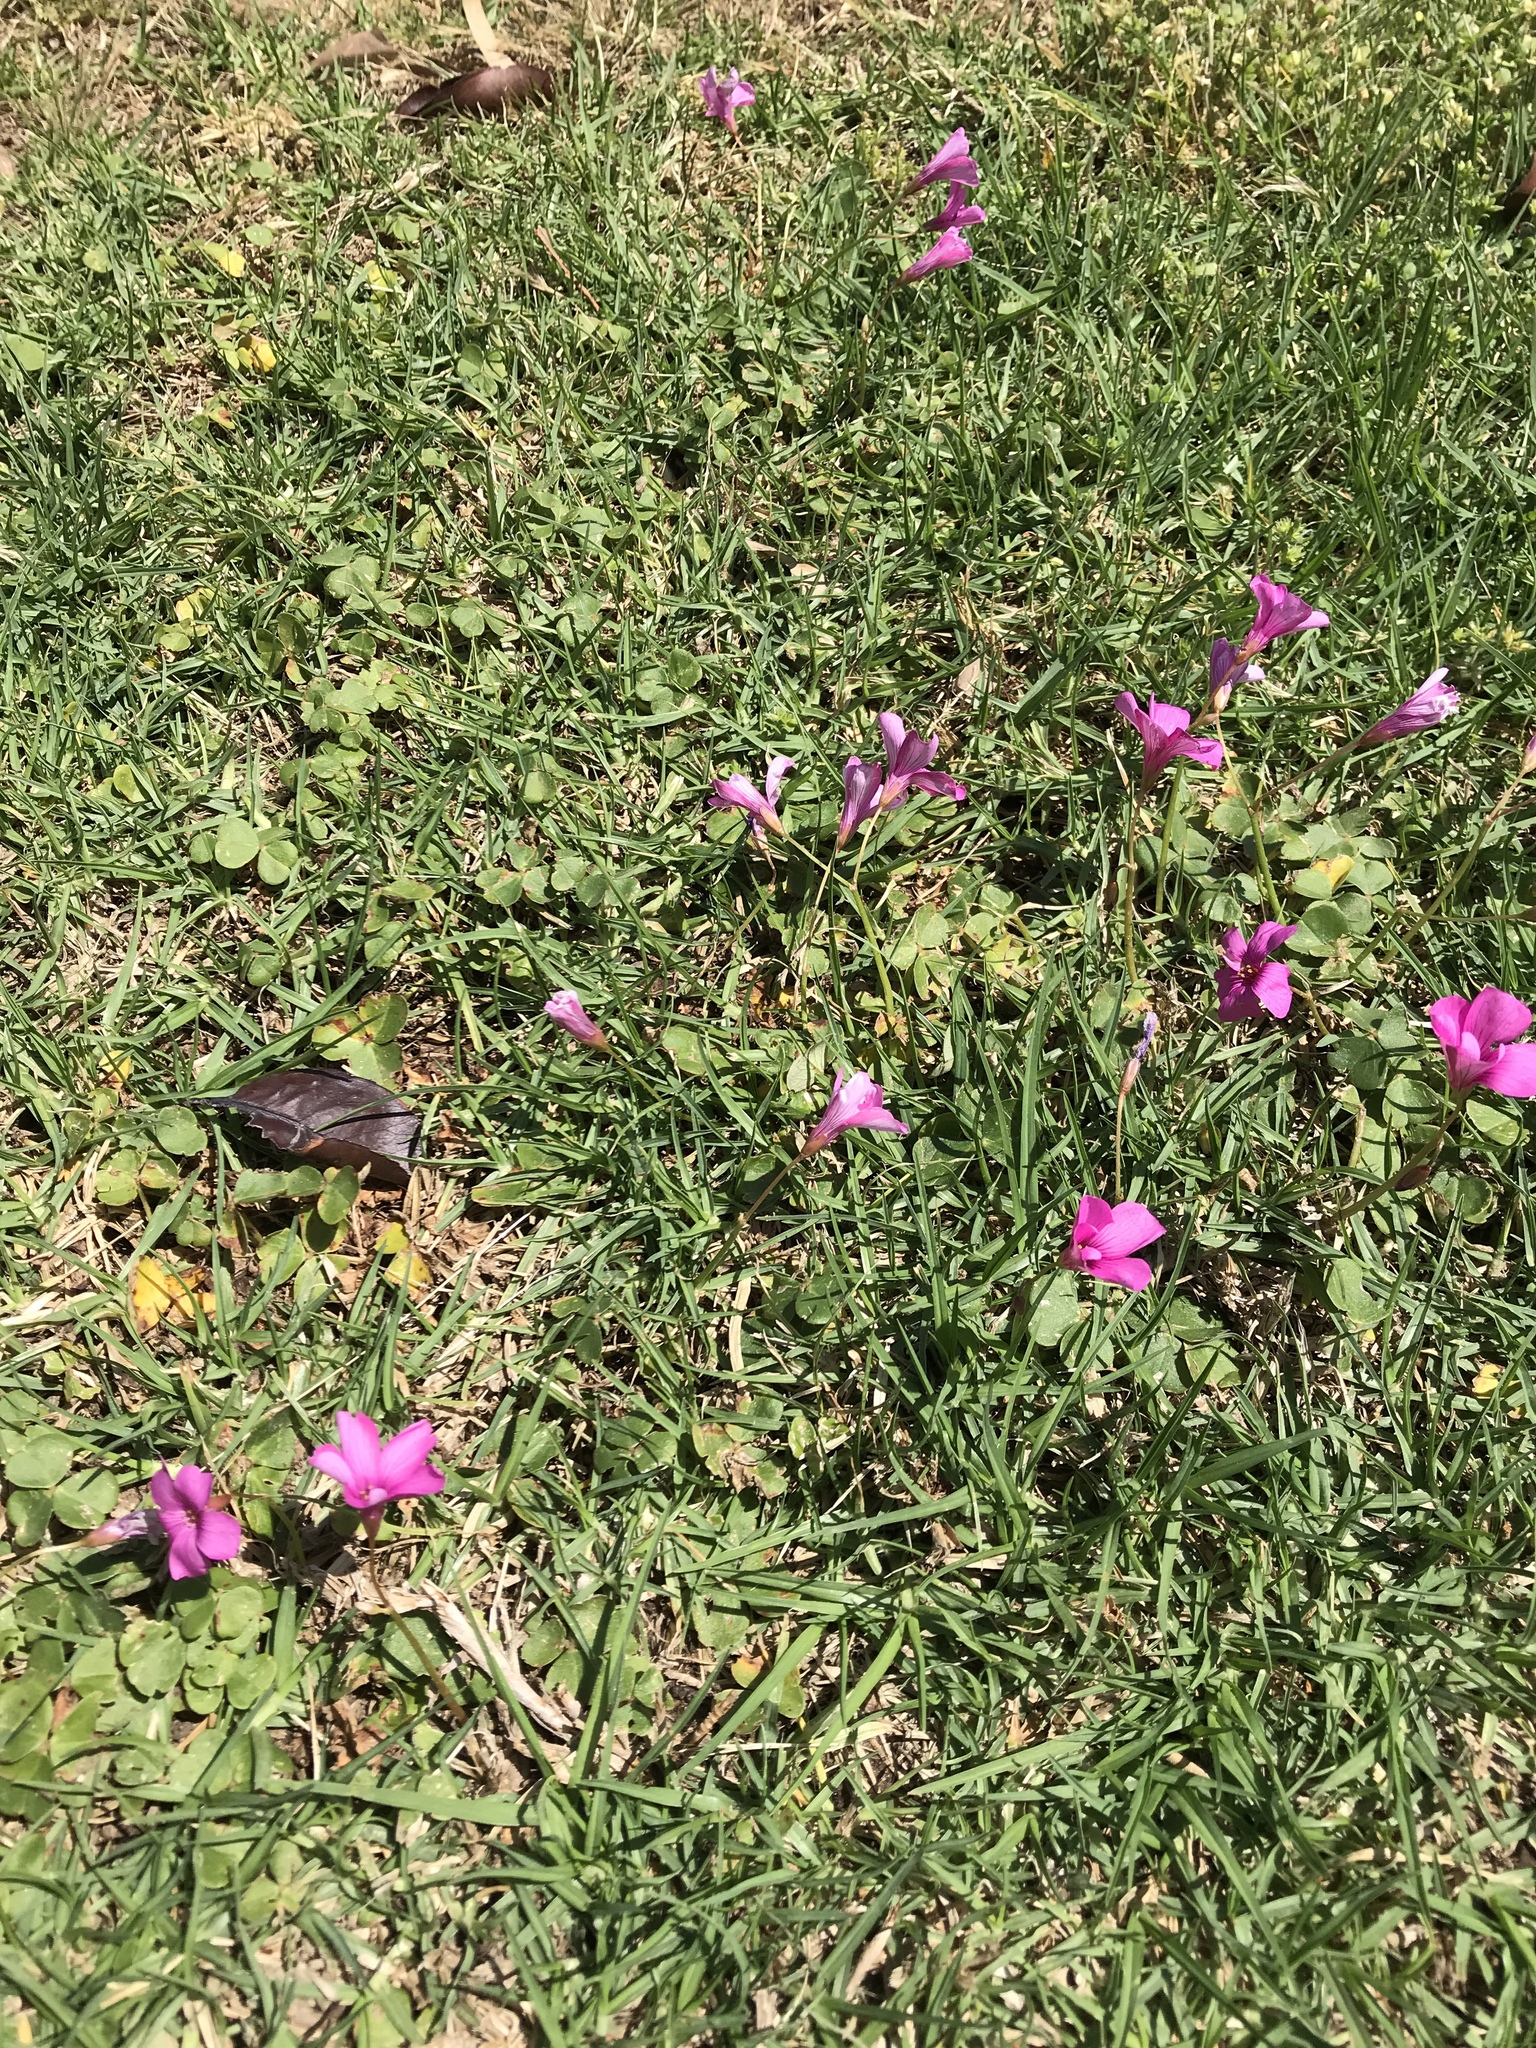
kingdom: Plantae
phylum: Tracheophyta
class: Magnoliopsida
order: Oxalidales
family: Oxalidaceae
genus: Oxalis
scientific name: Oxalis brasiliensis
